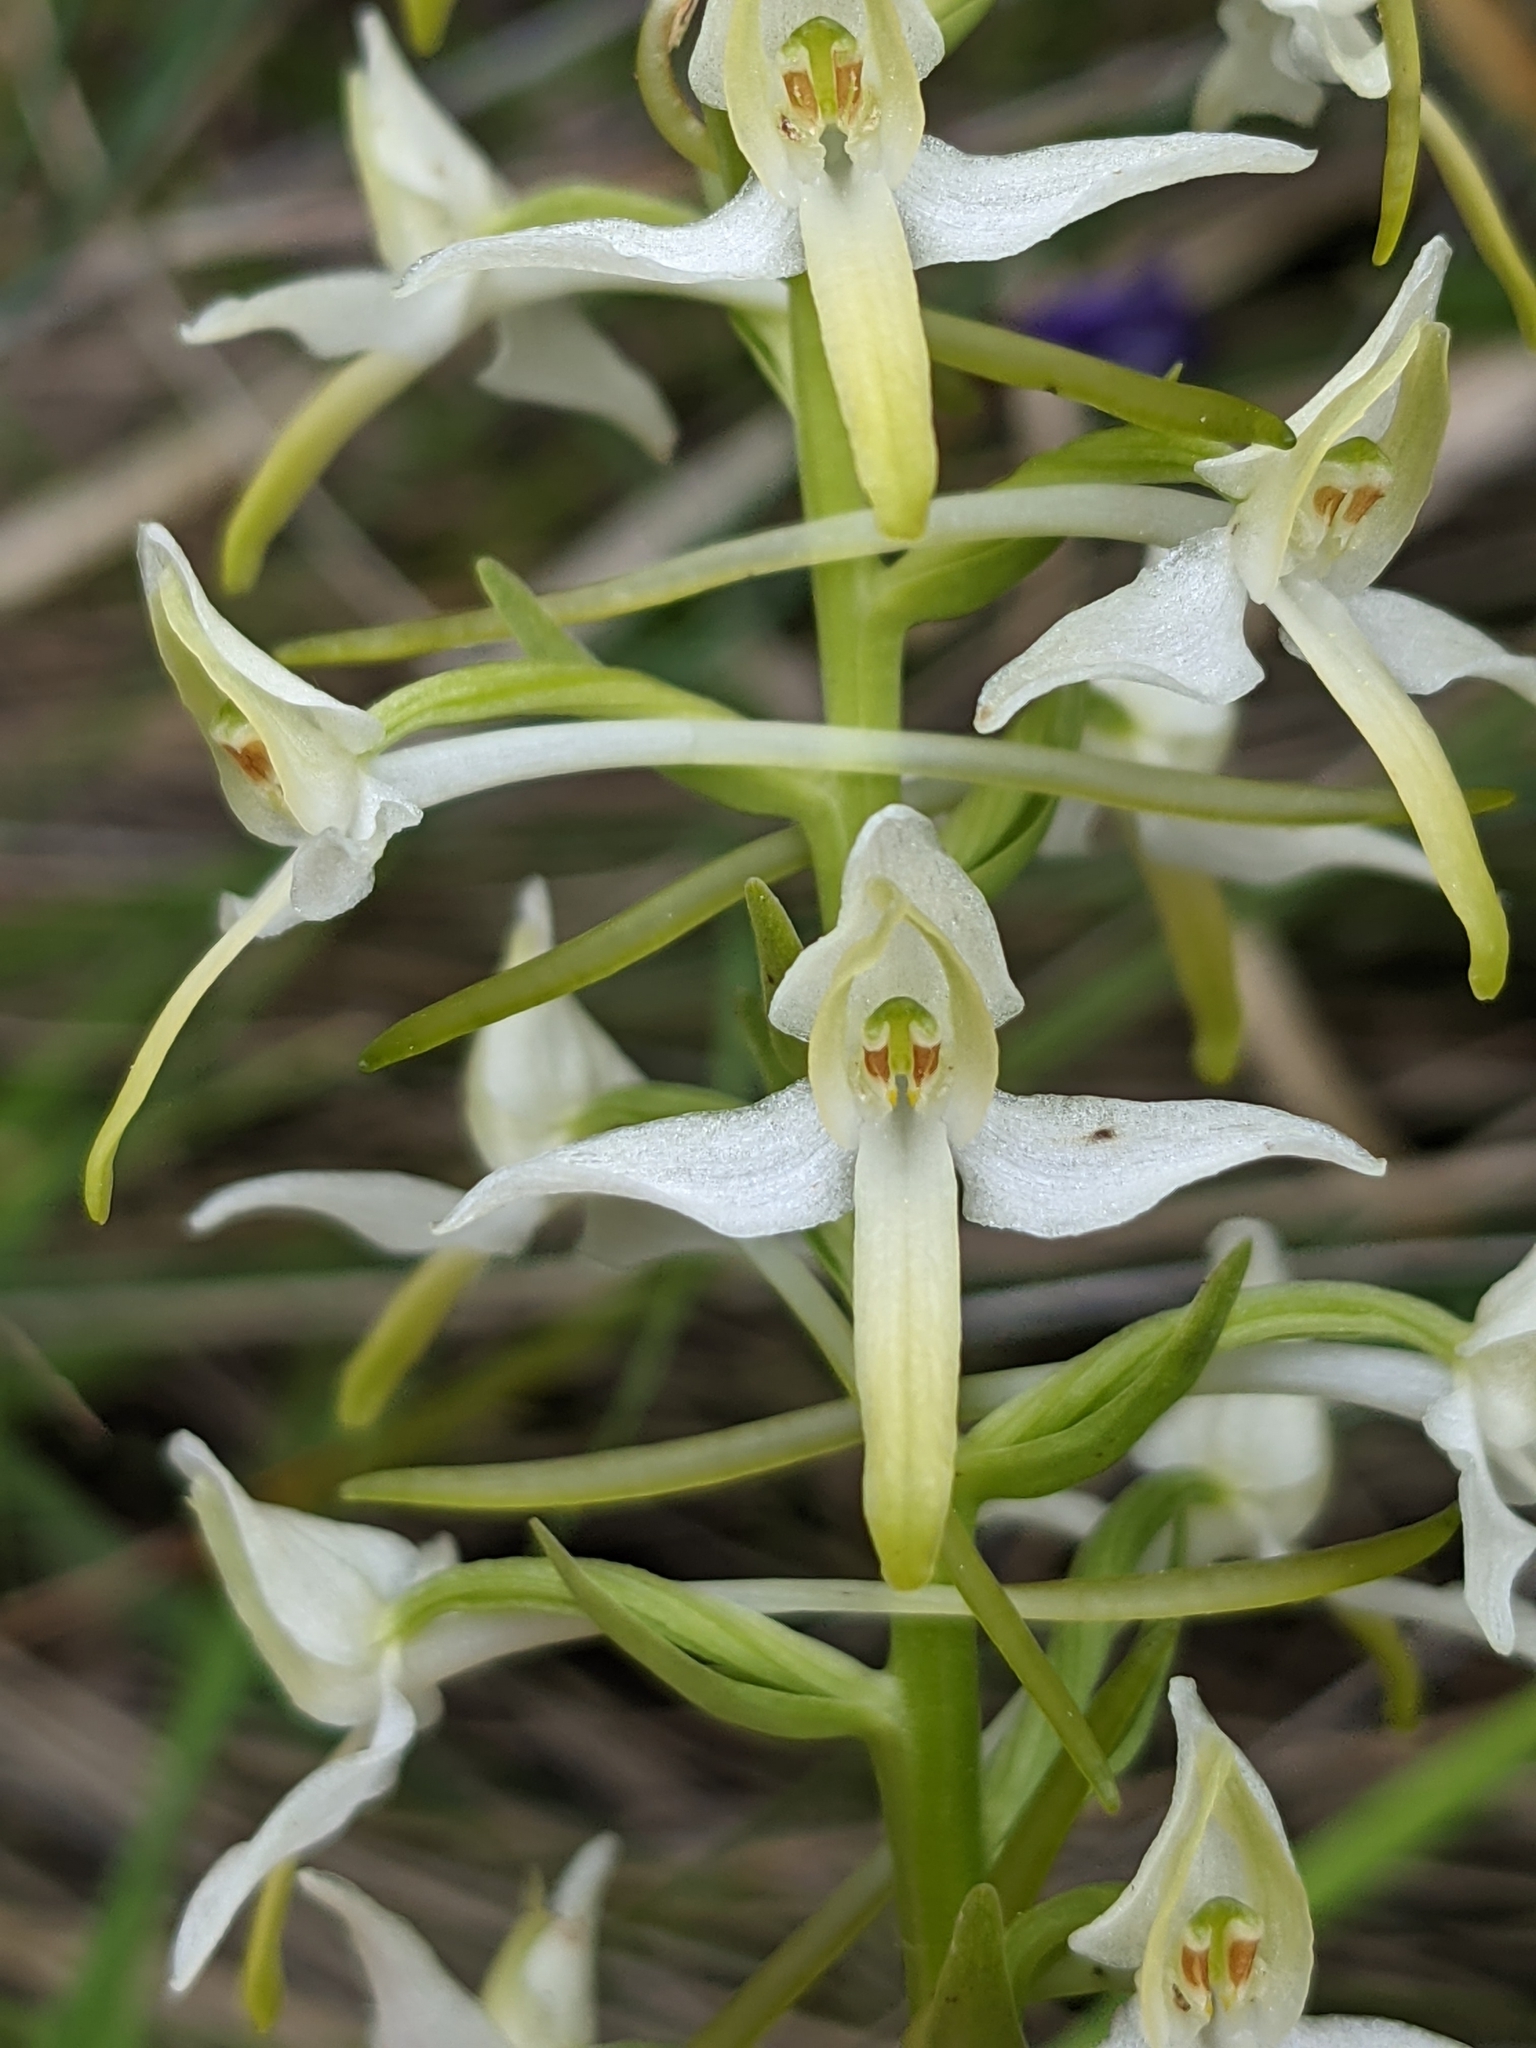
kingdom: Plantae
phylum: Tracheophyta
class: Liliopsida
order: Asparagales
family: Orchidaceae
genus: Platanthera
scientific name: Platanthera bifolia
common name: Lesser butterfly-orchid
